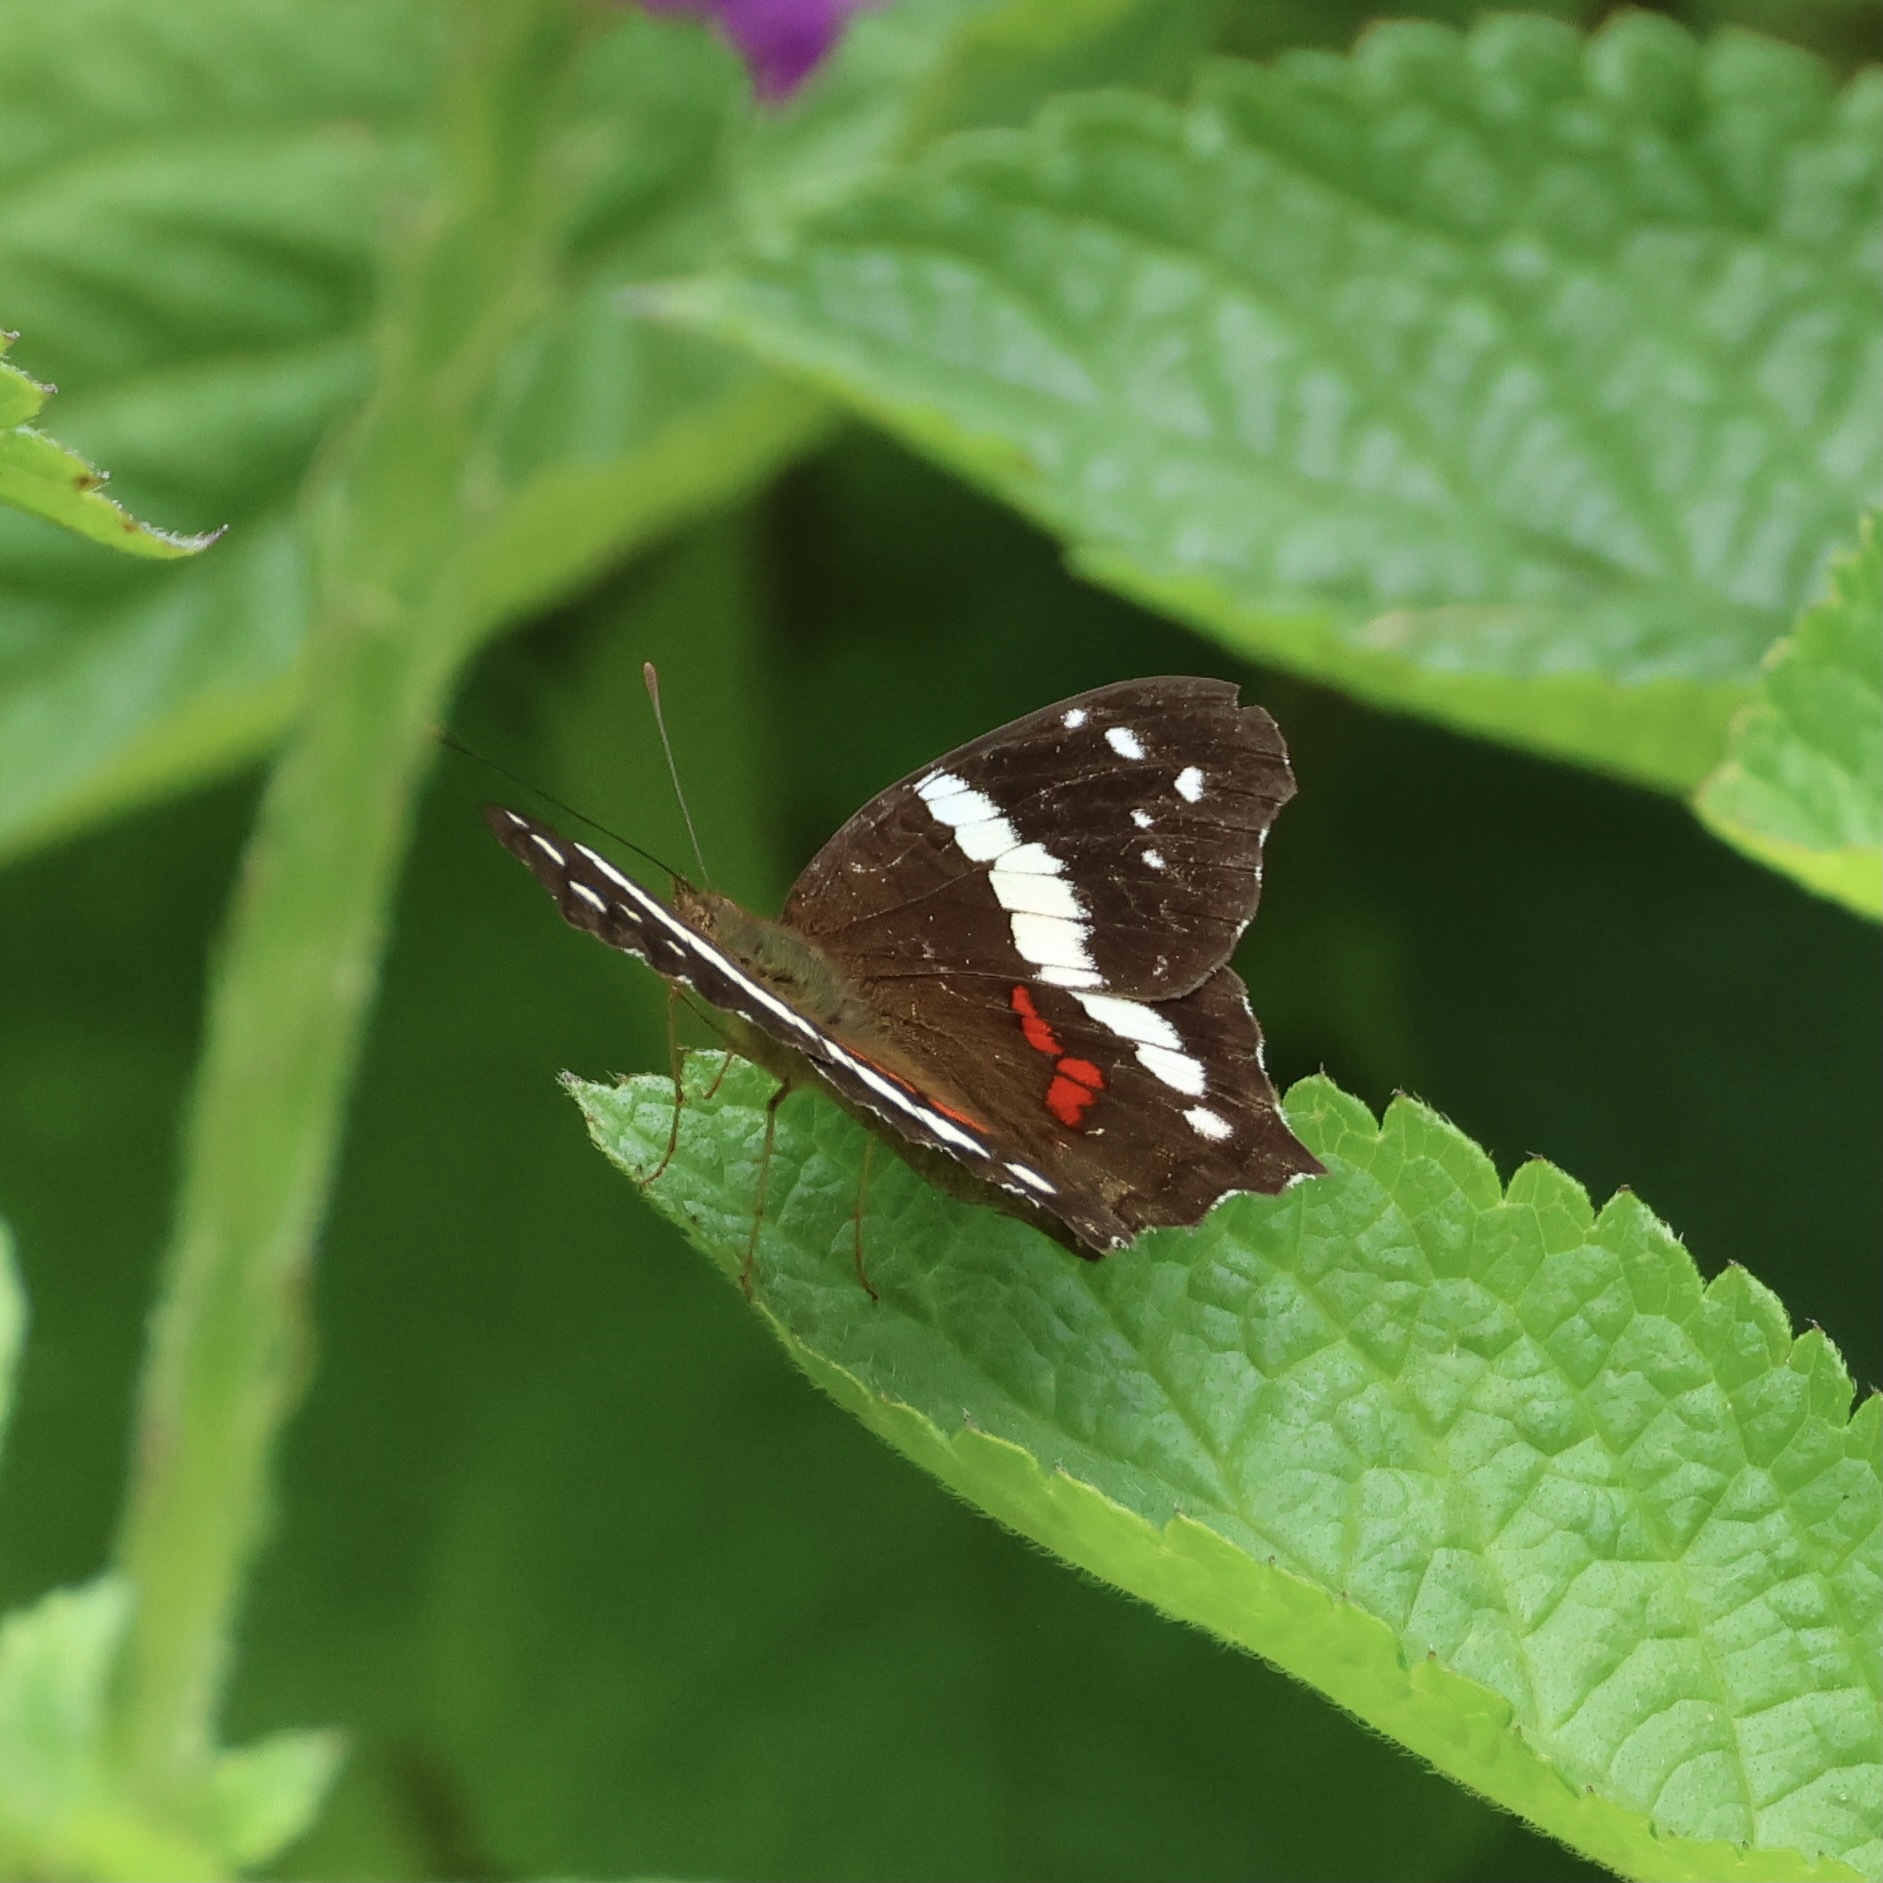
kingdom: Animalia
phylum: Arthropoda
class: Insecta
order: Lepidoptera
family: Nymphalidae
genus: Anartia
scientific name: Anartia fatima
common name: Banded peacock
